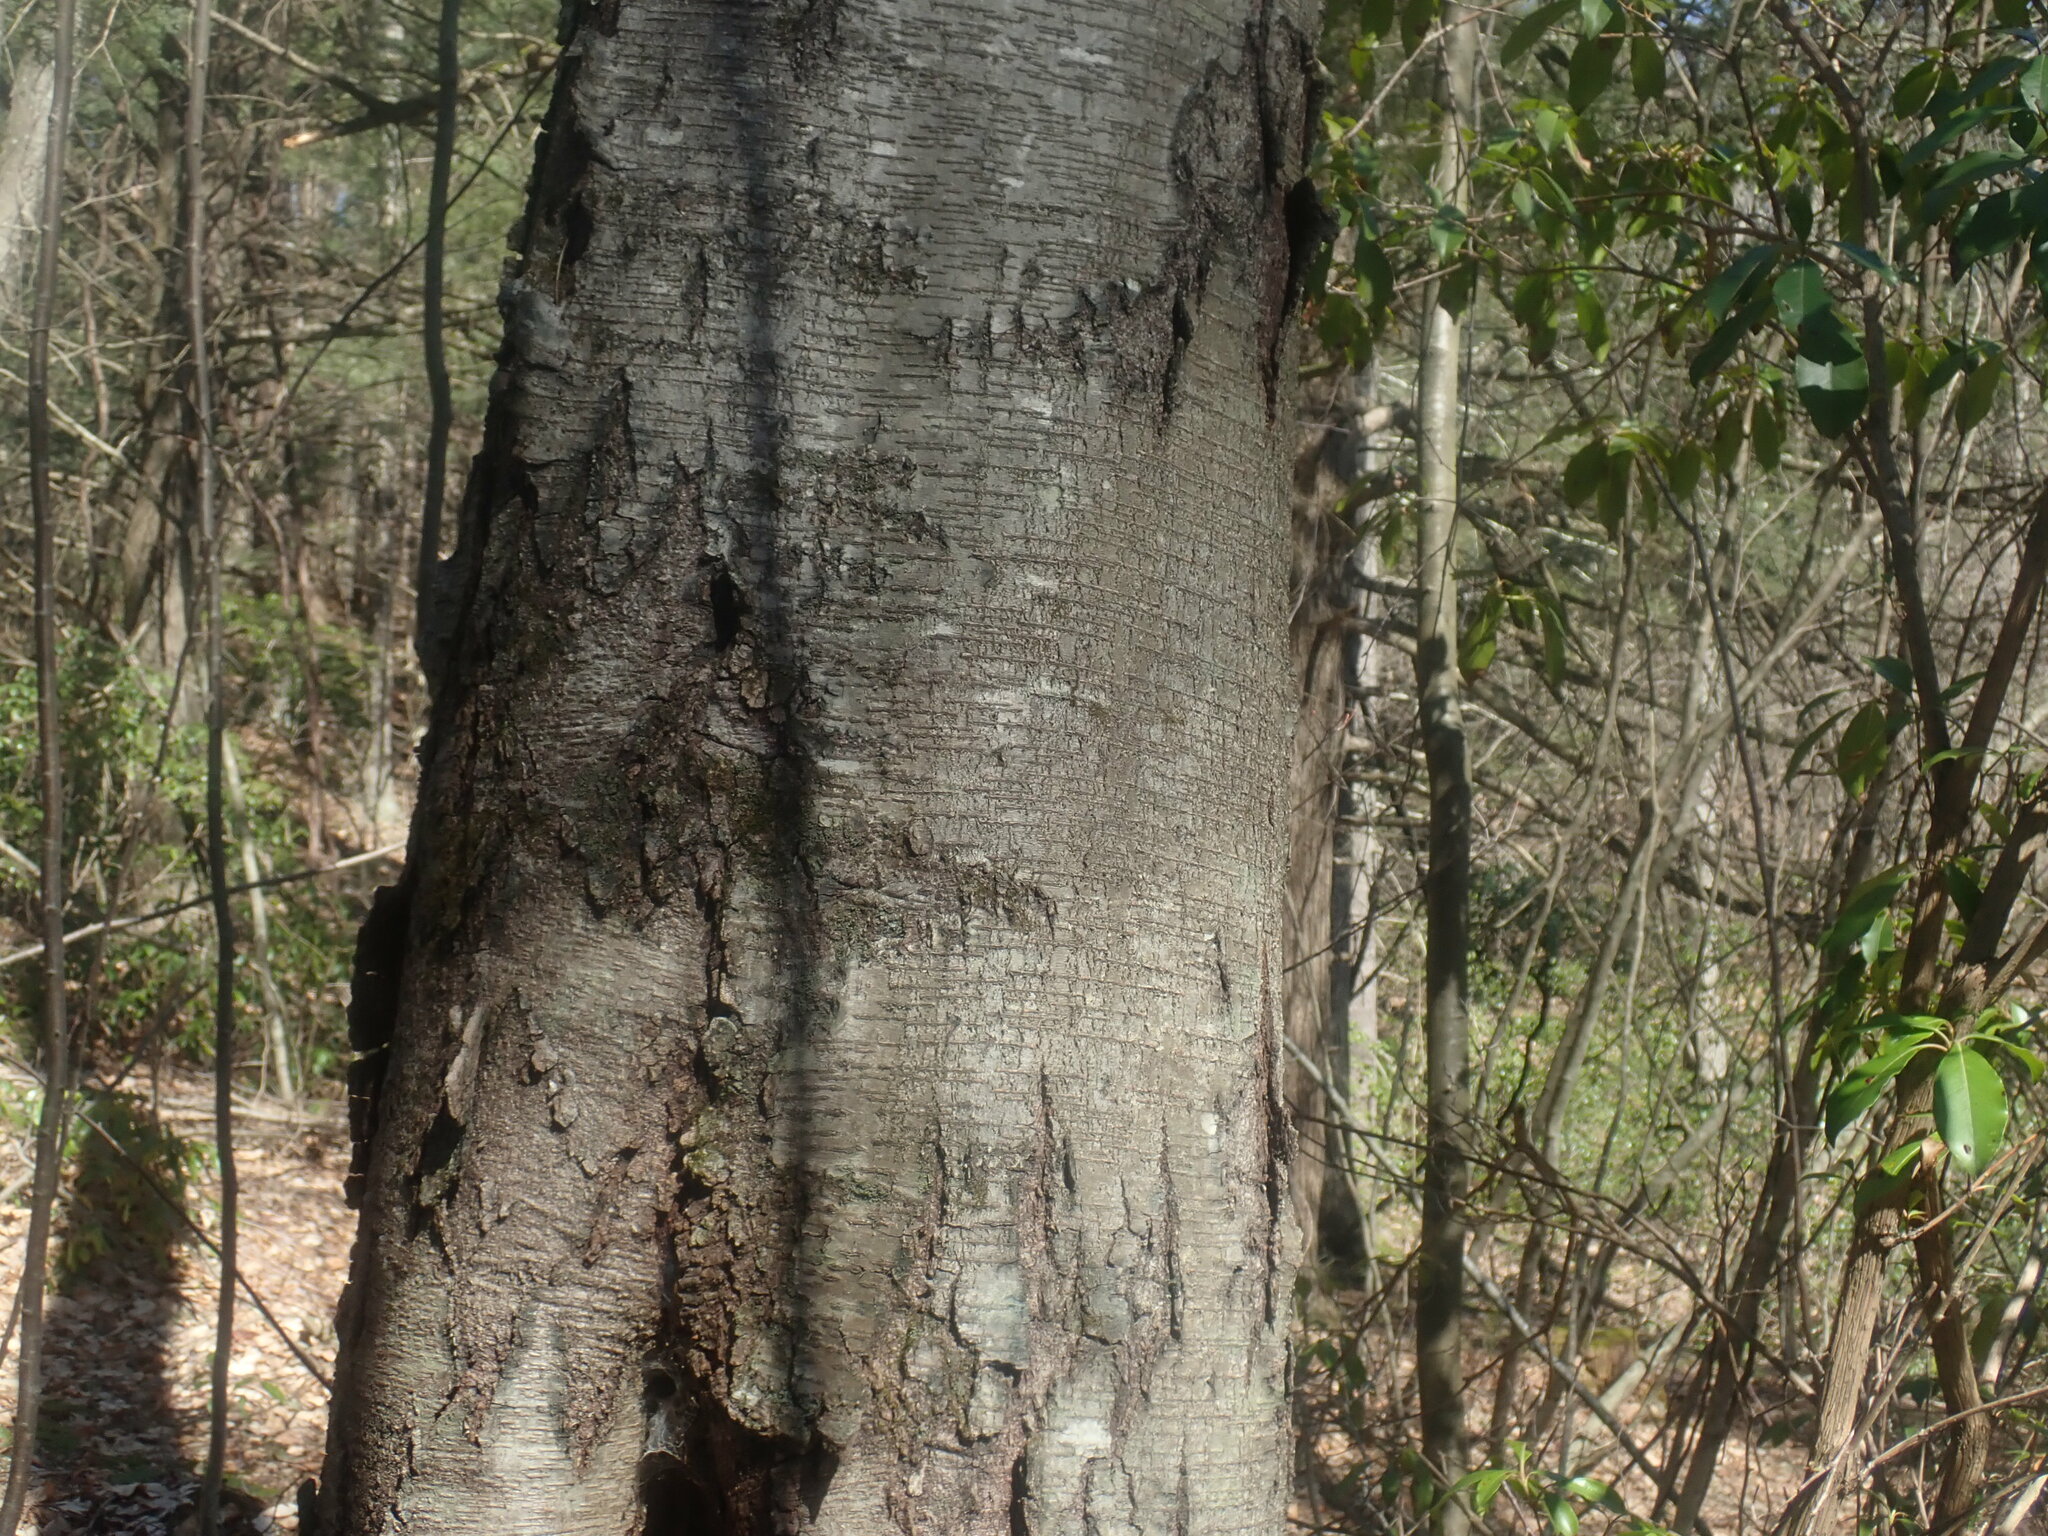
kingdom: Plantae
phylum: Tracheophyta
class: Magnoliopsida
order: Fagales
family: Betulaceae
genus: Betula
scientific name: Betula lenta
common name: Black birch
